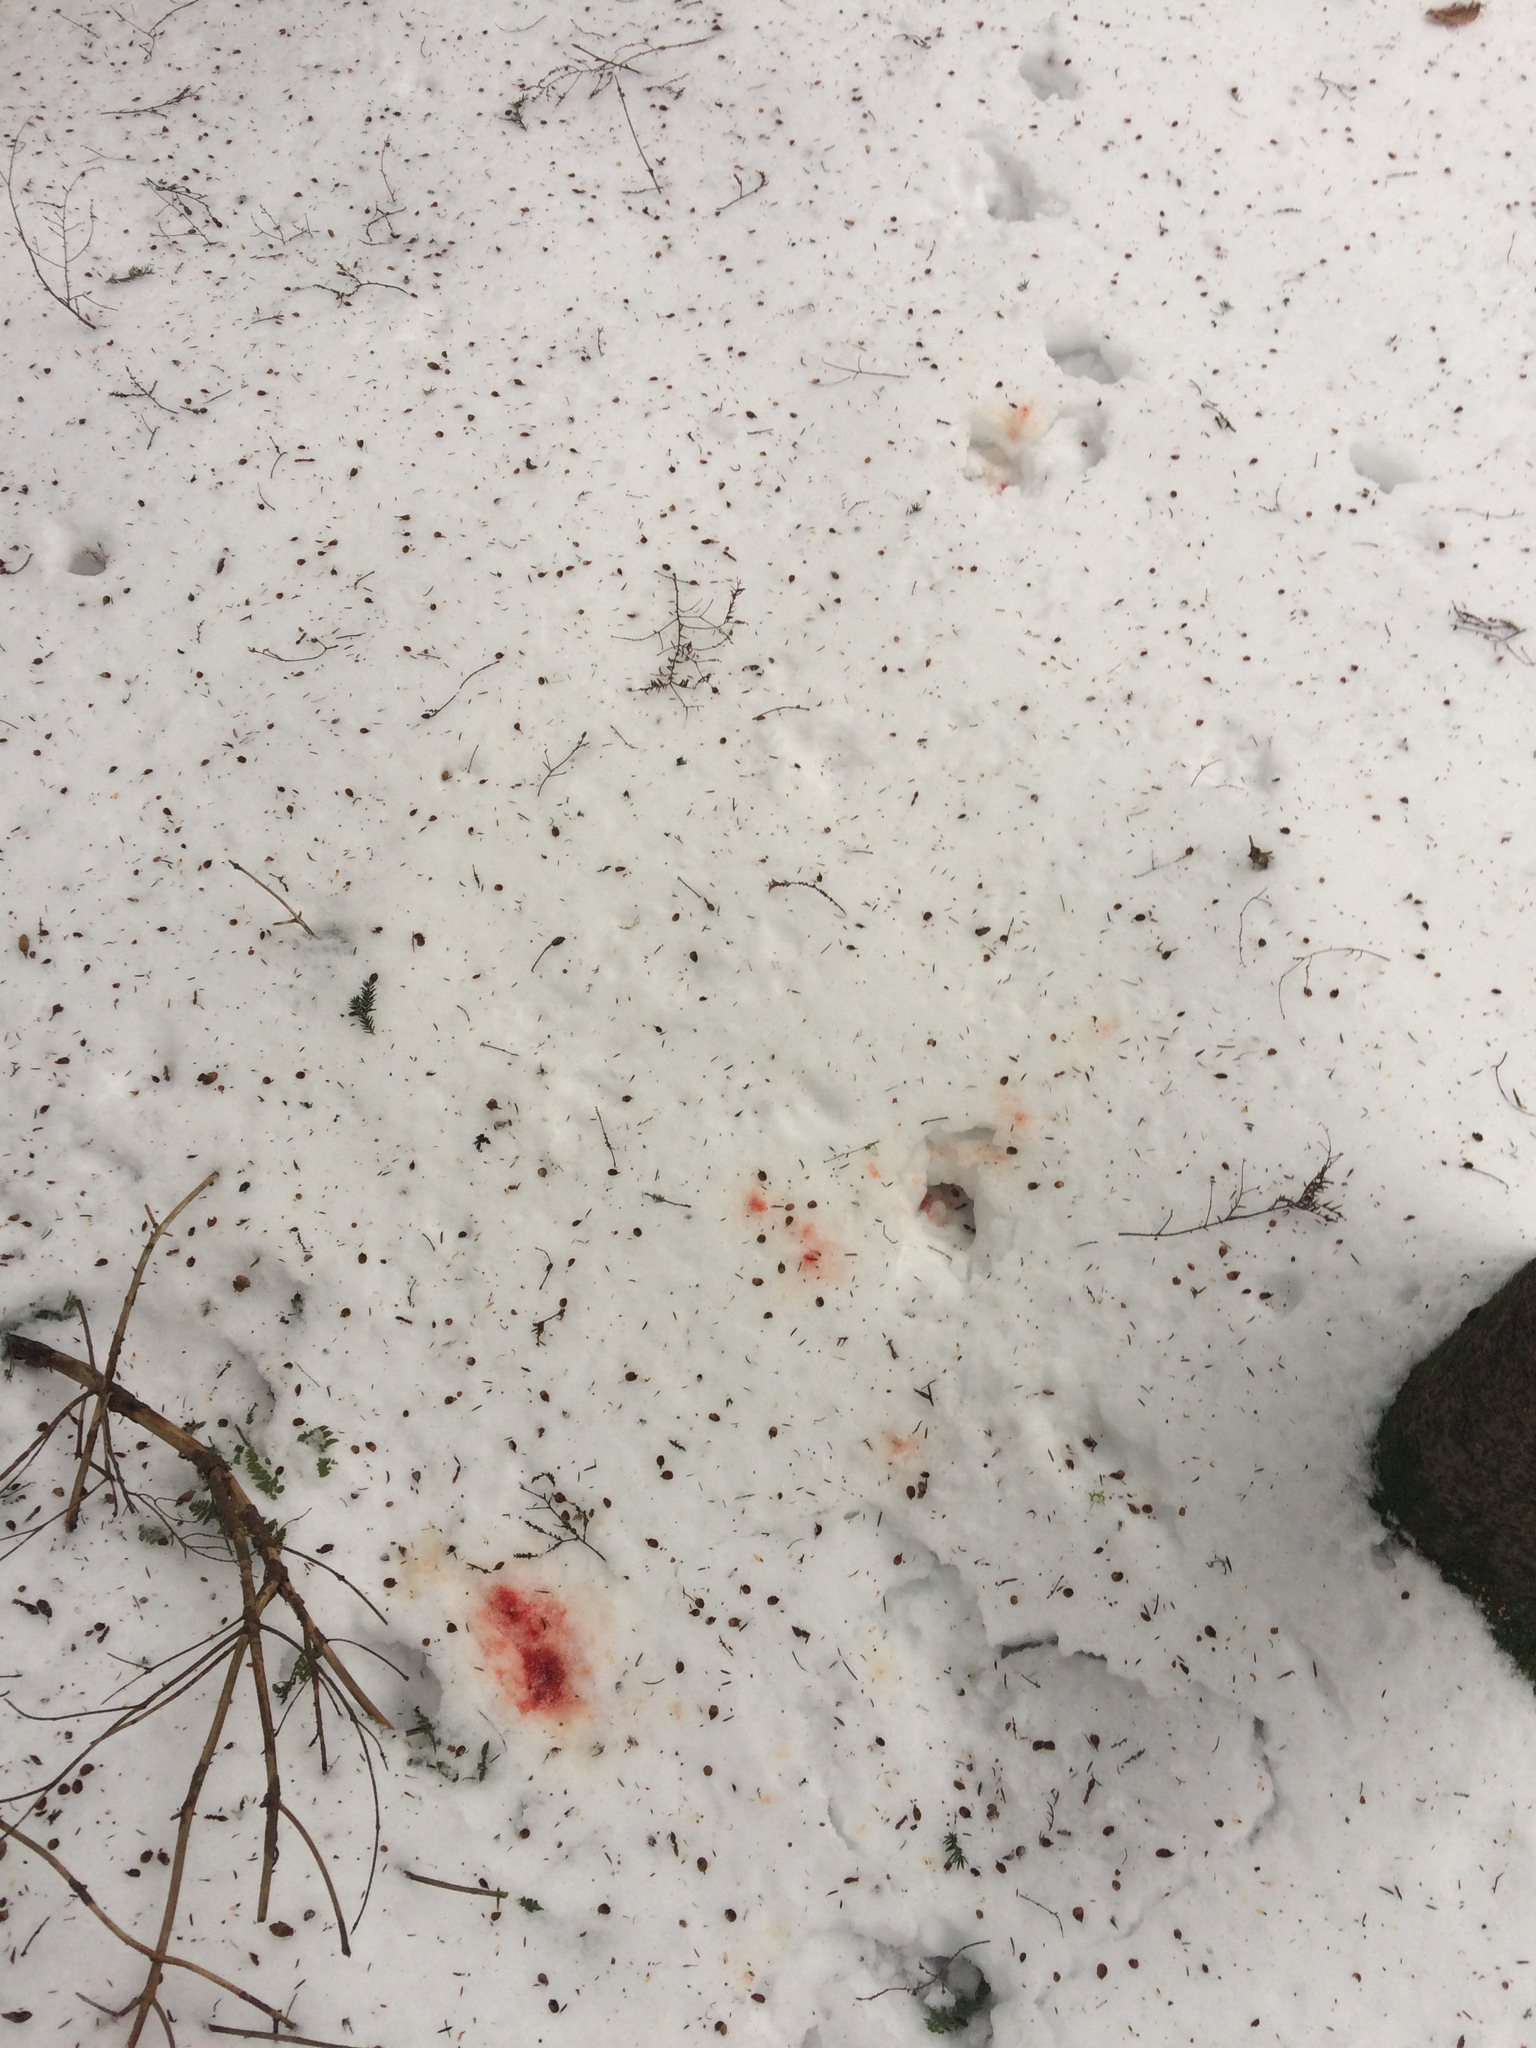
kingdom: Animalia
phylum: Chordata
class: Mammalia
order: Artiodactyla
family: Cervidae
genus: Odocoileus
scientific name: Odocoileus virginianus
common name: White-tailed deer
